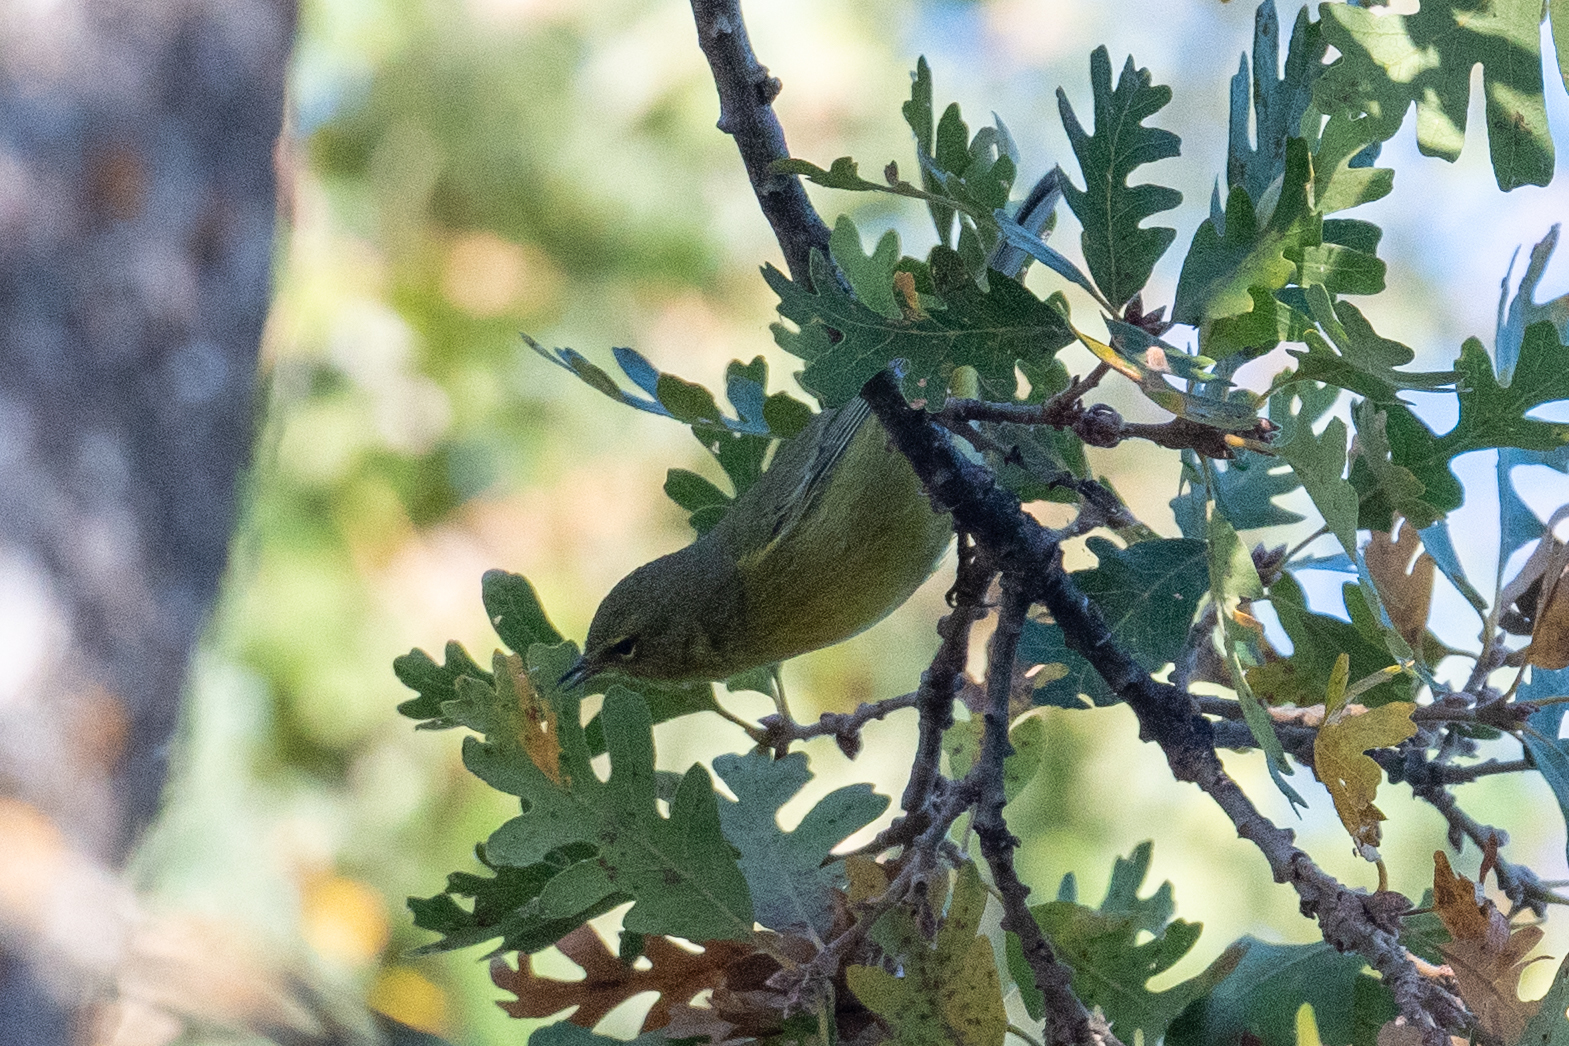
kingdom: Animalia
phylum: Chordata
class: Aves
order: Passeriformes
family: Parulidae
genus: Leiothlypis
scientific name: Leiothlypis celata
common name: Orange-crowned warbler
